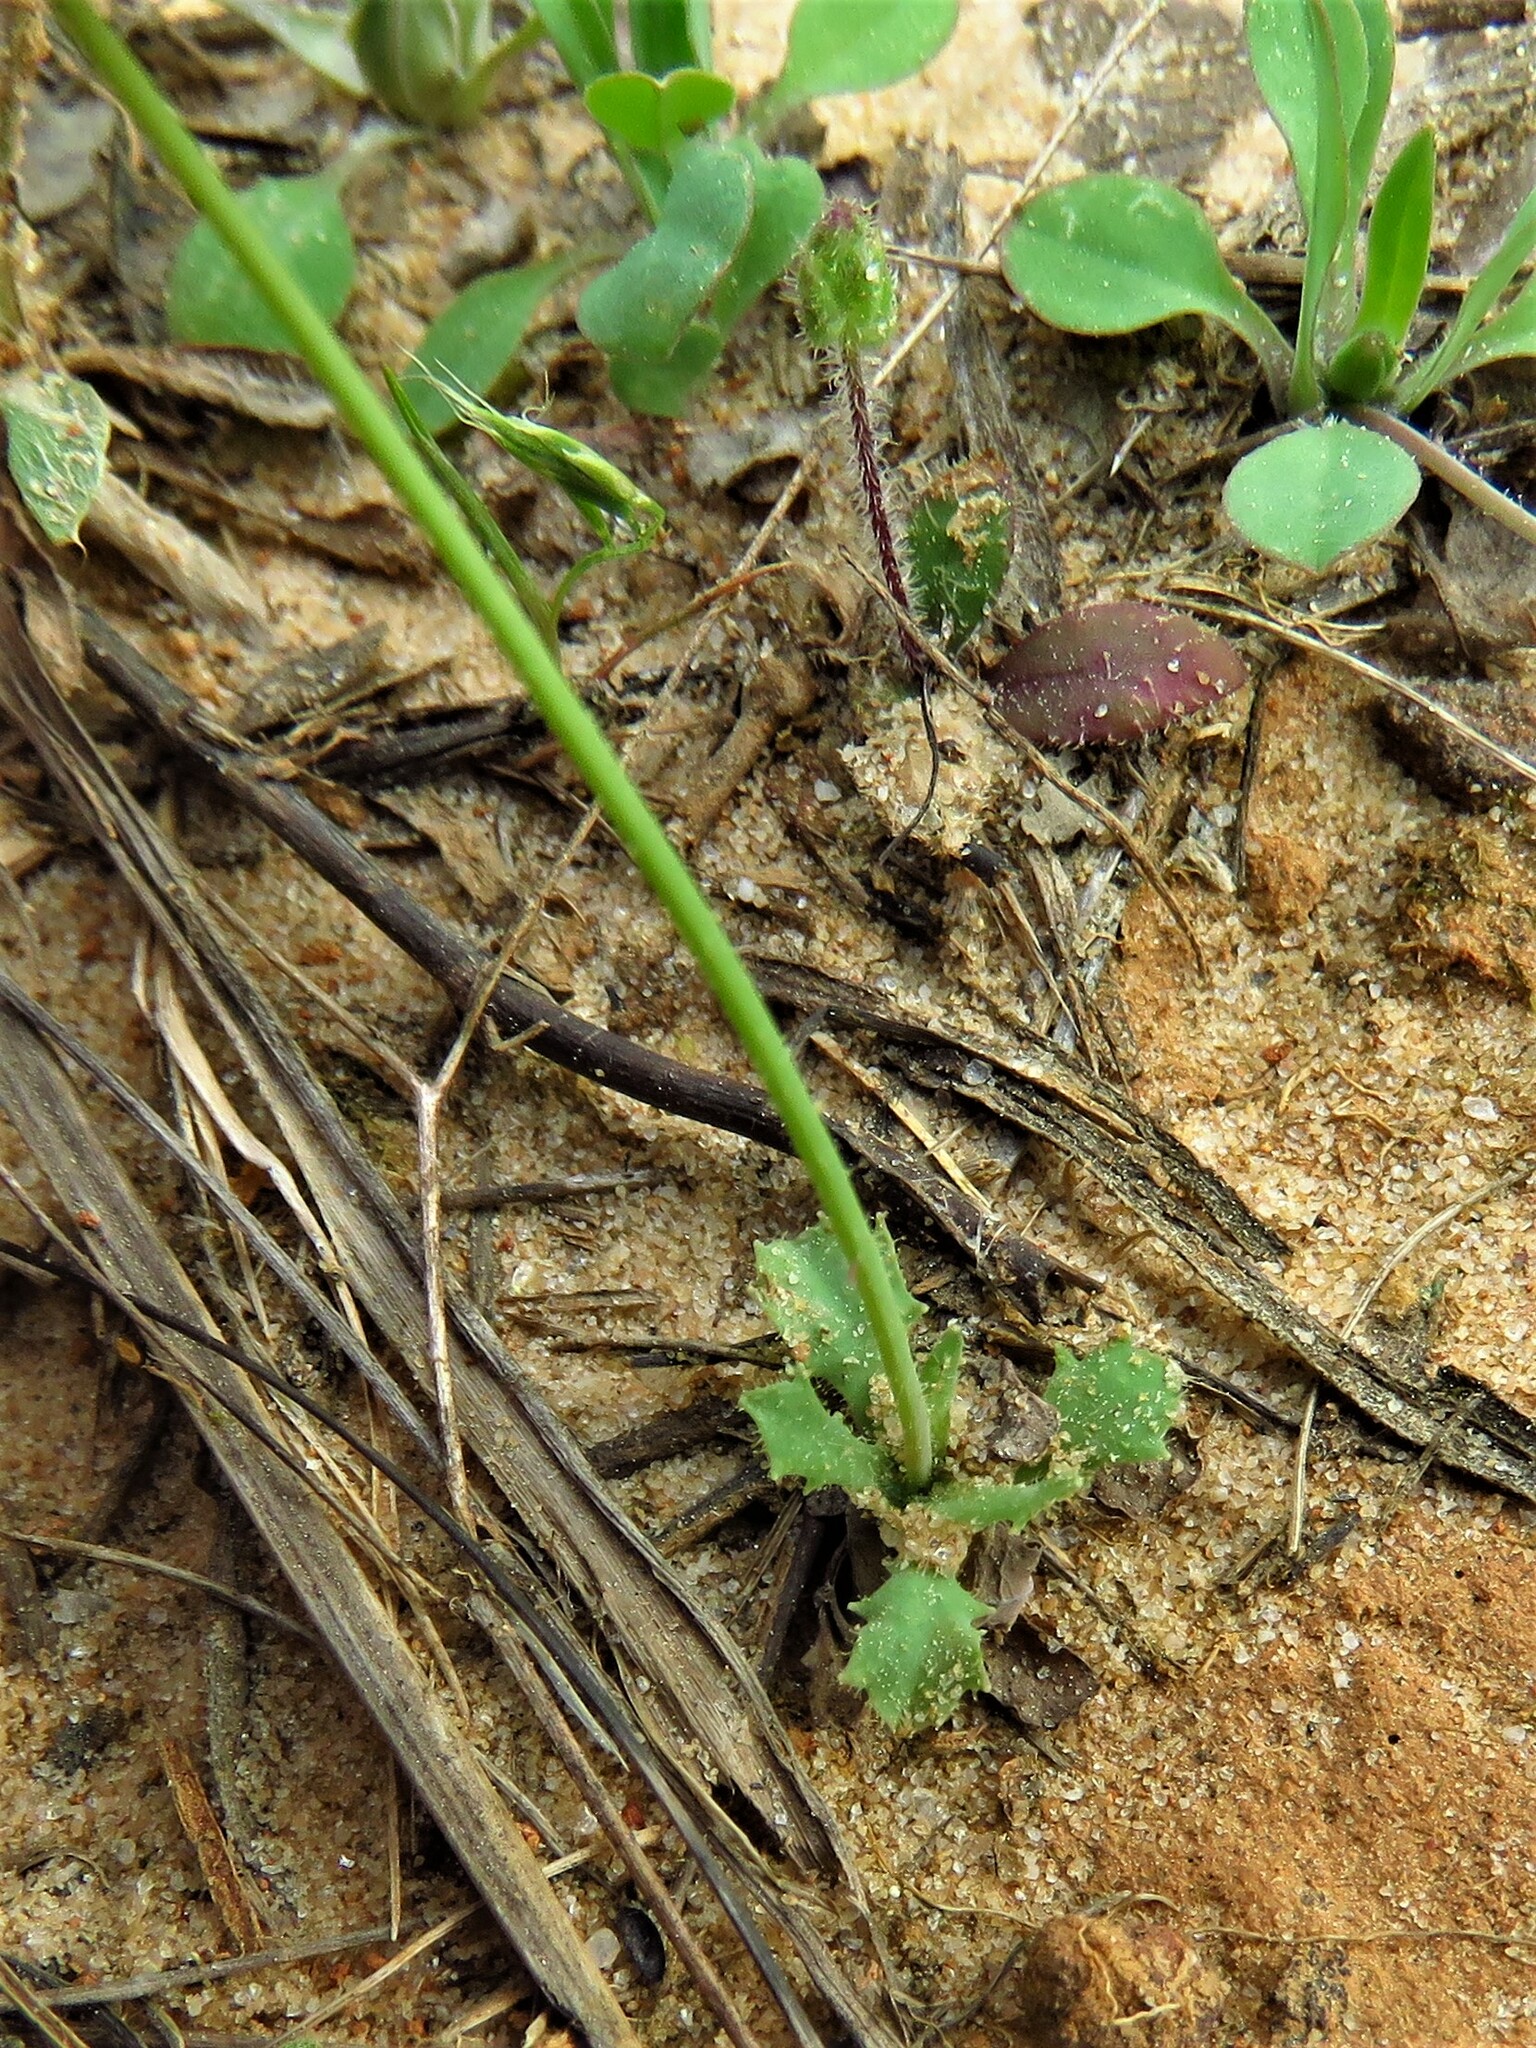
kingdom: Plantae
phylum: Tracheophyta
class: Magnoliopsida
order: Asterales
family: Asteraceae
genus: Krigia
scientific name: Krigia virginica
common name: Virginia dwarf-dandelion
